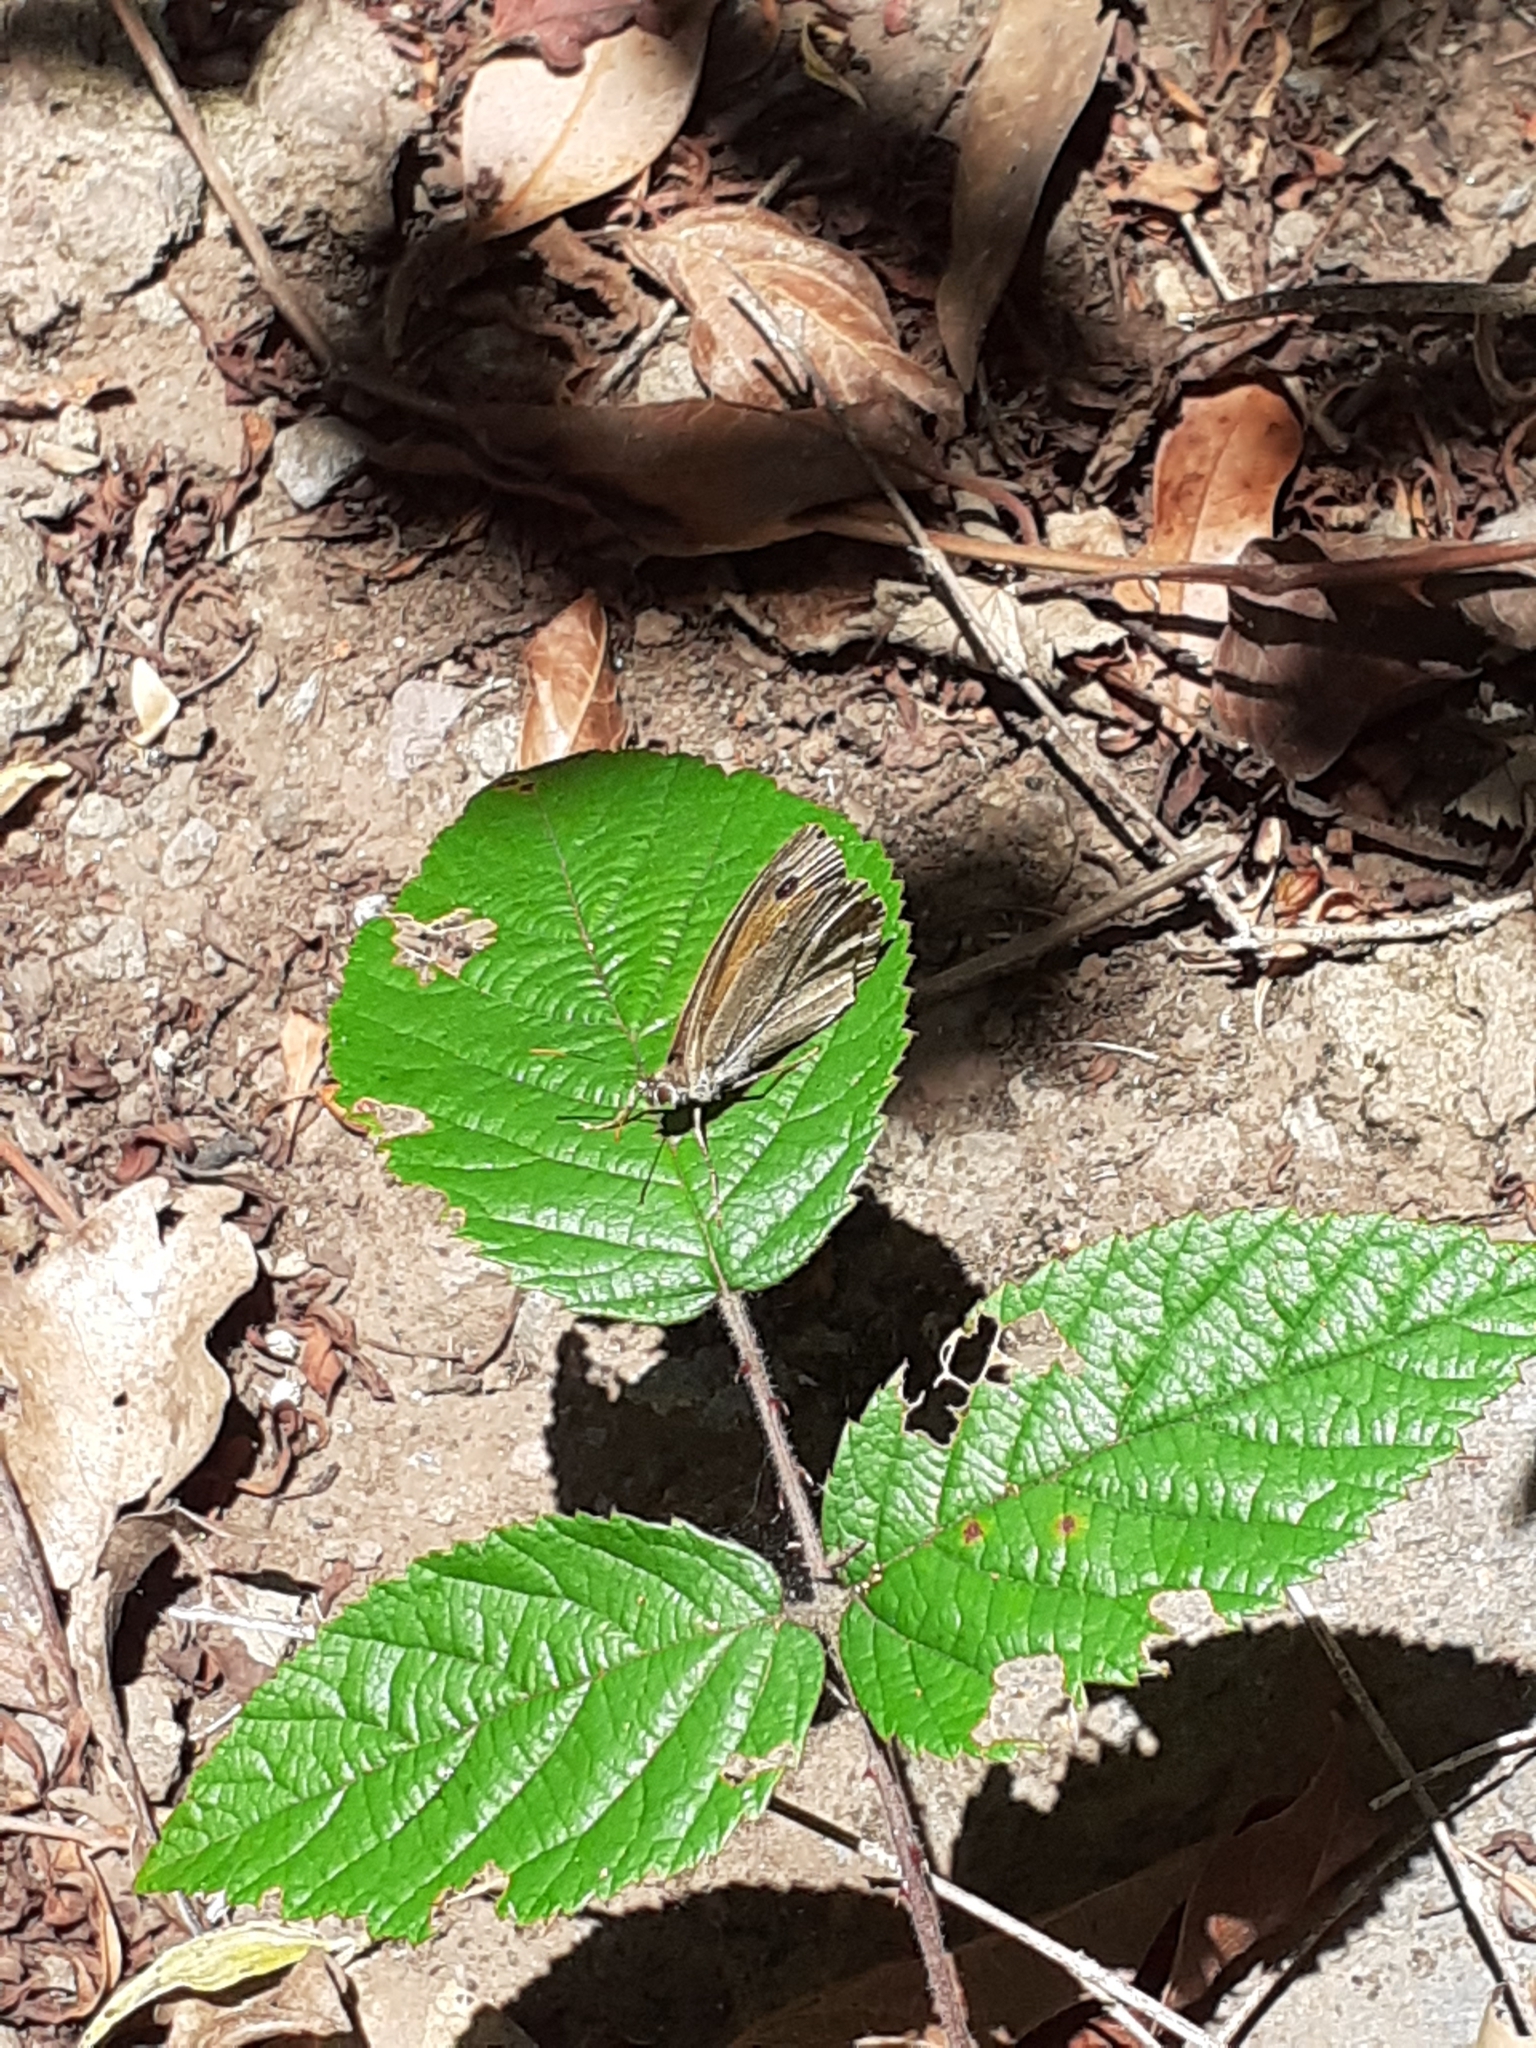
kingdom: Animalia
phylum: Arthropoda
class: Insecta
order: Lepidoptera
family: Nymphalidae
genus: Maniola
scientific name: Maniola jurtina
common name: Meadow brown
